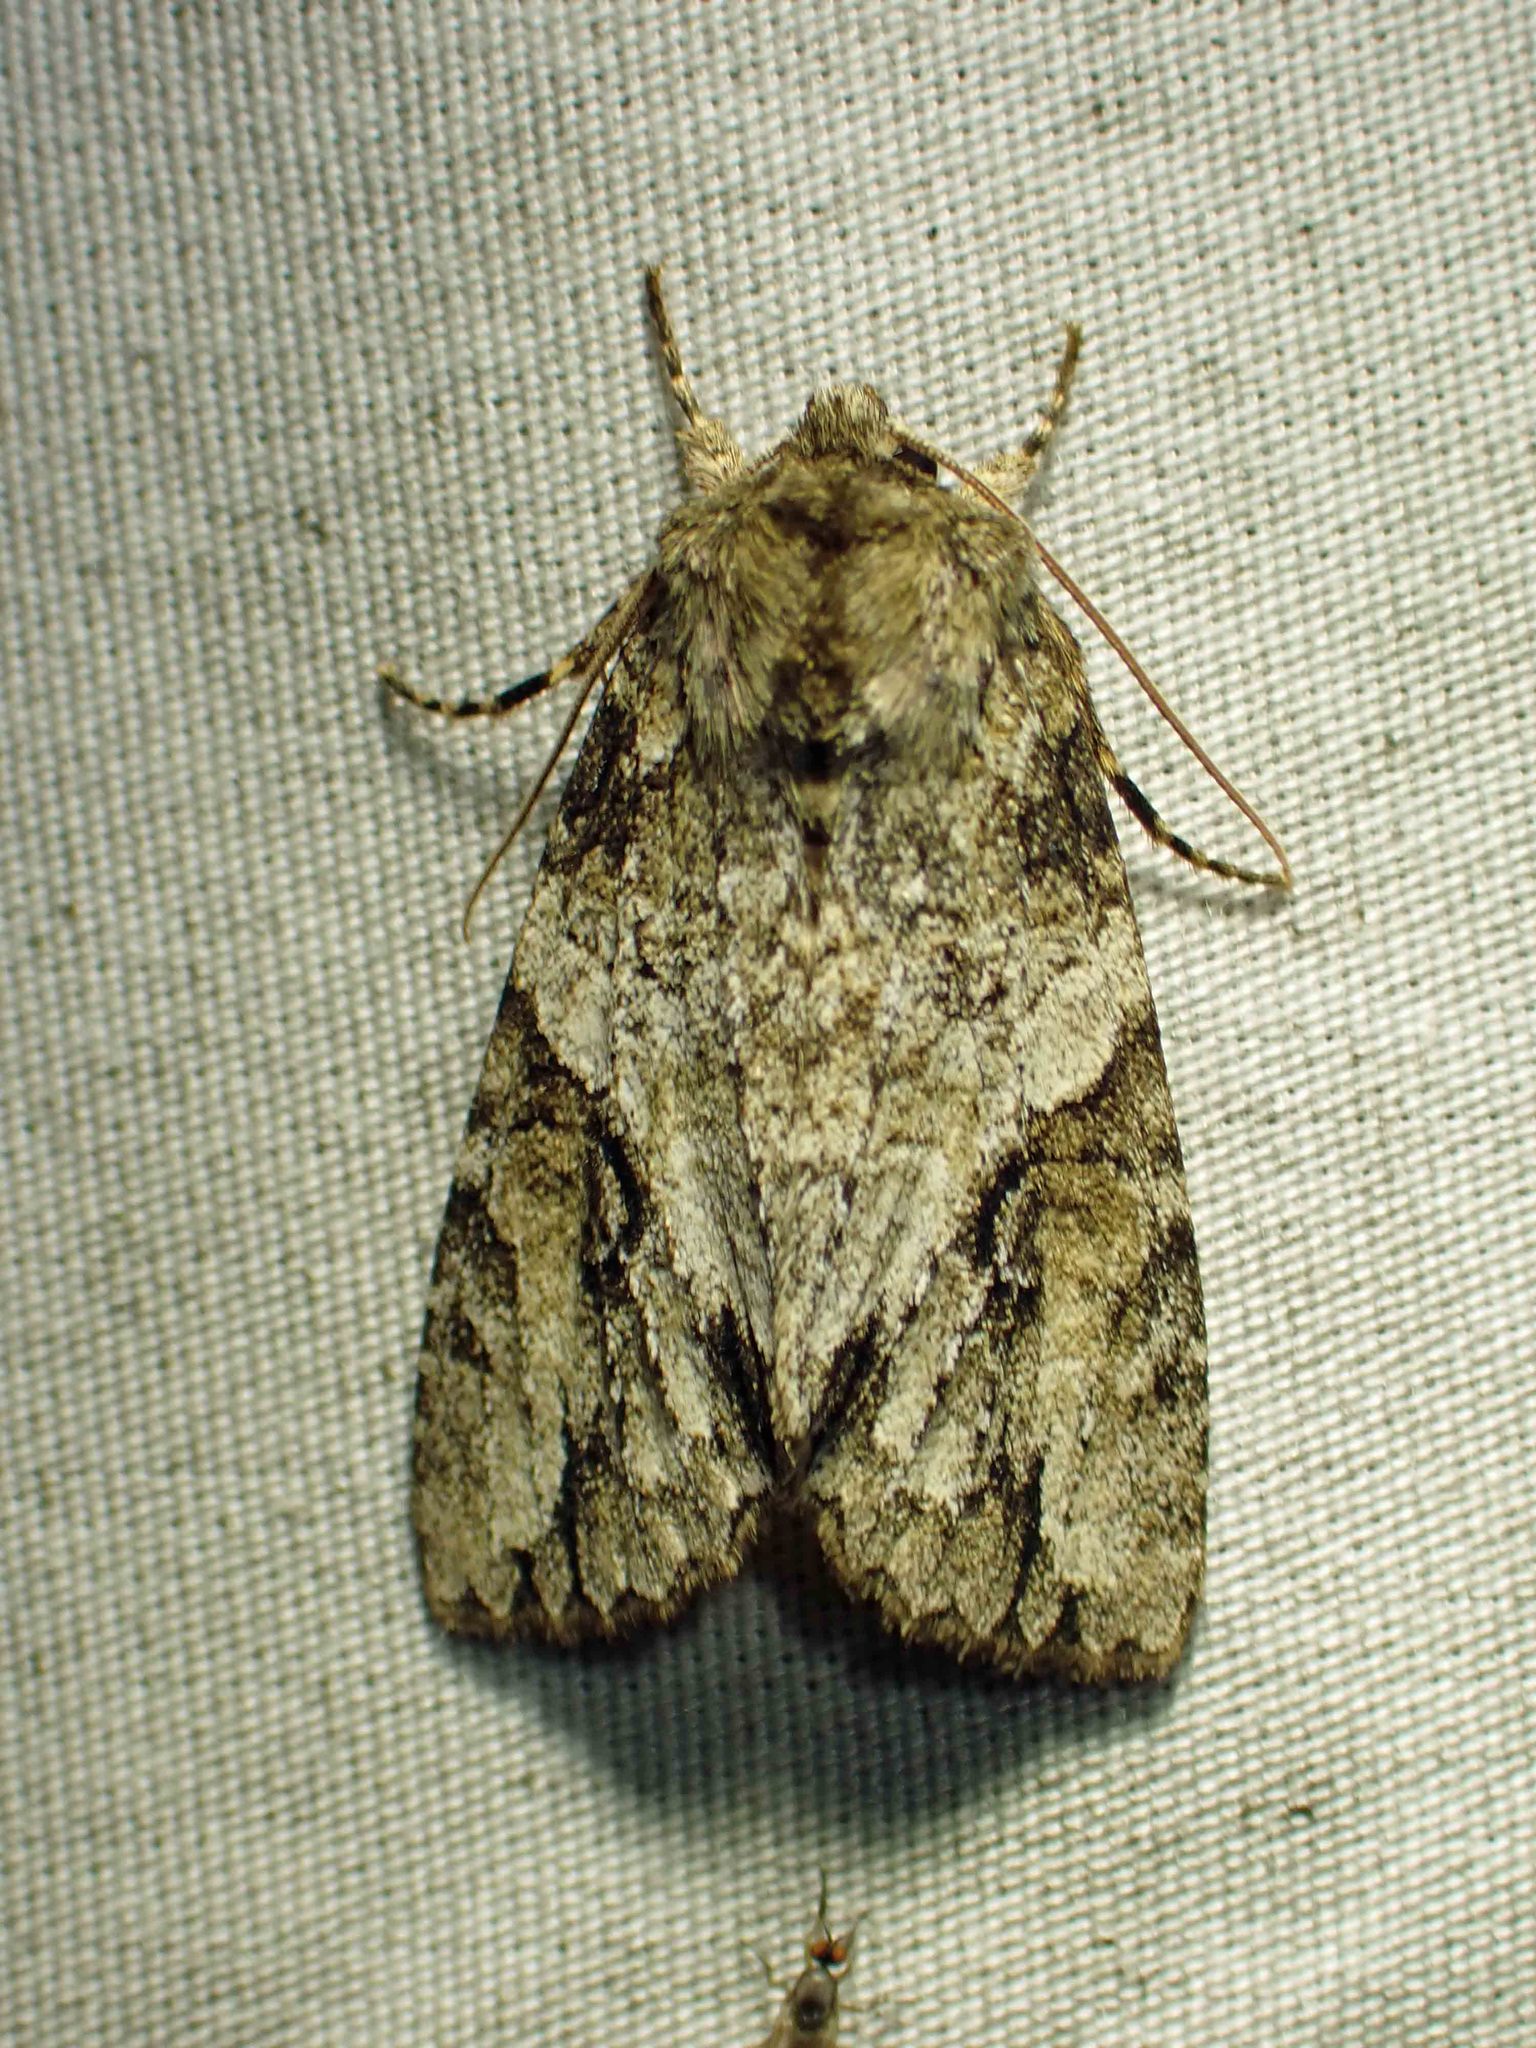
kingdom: Animalia
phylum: Arthropoda
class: Insecta
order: Lepidoptera
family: Noctuidae
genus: Achatia
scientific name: Achatia latex
